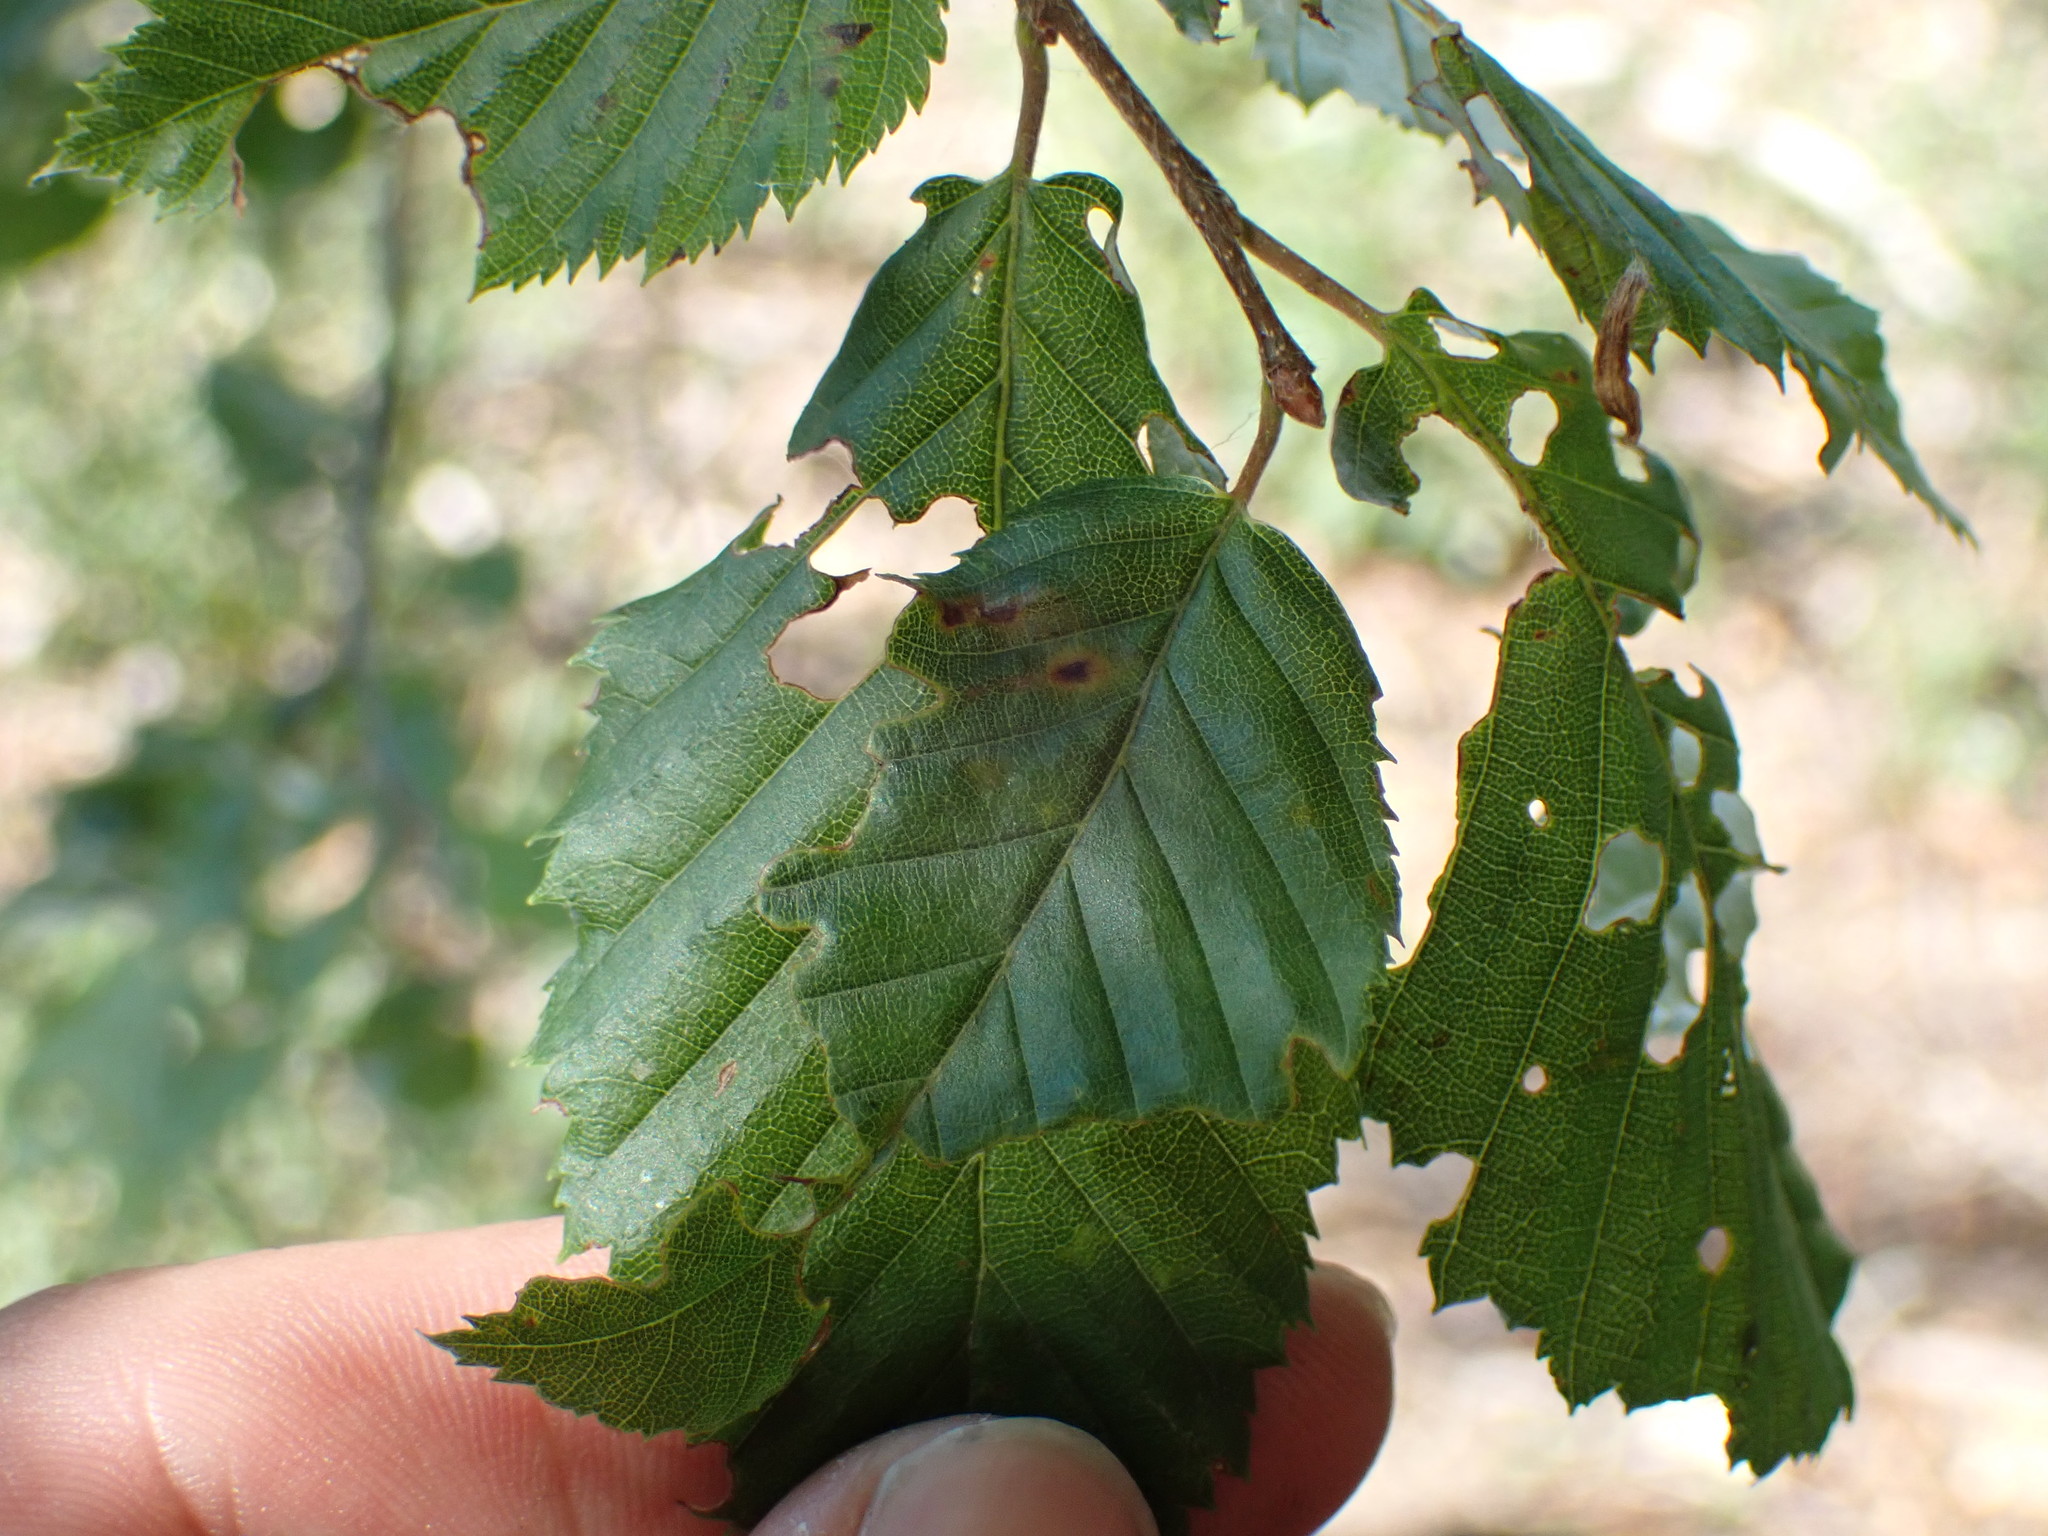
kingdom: Plantae
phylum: Tracheophyta
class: Magnoliopsida
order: Fagales
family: Betulaceae
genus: Carpinus
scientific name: Carpinus betulus
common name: Hornbeam
